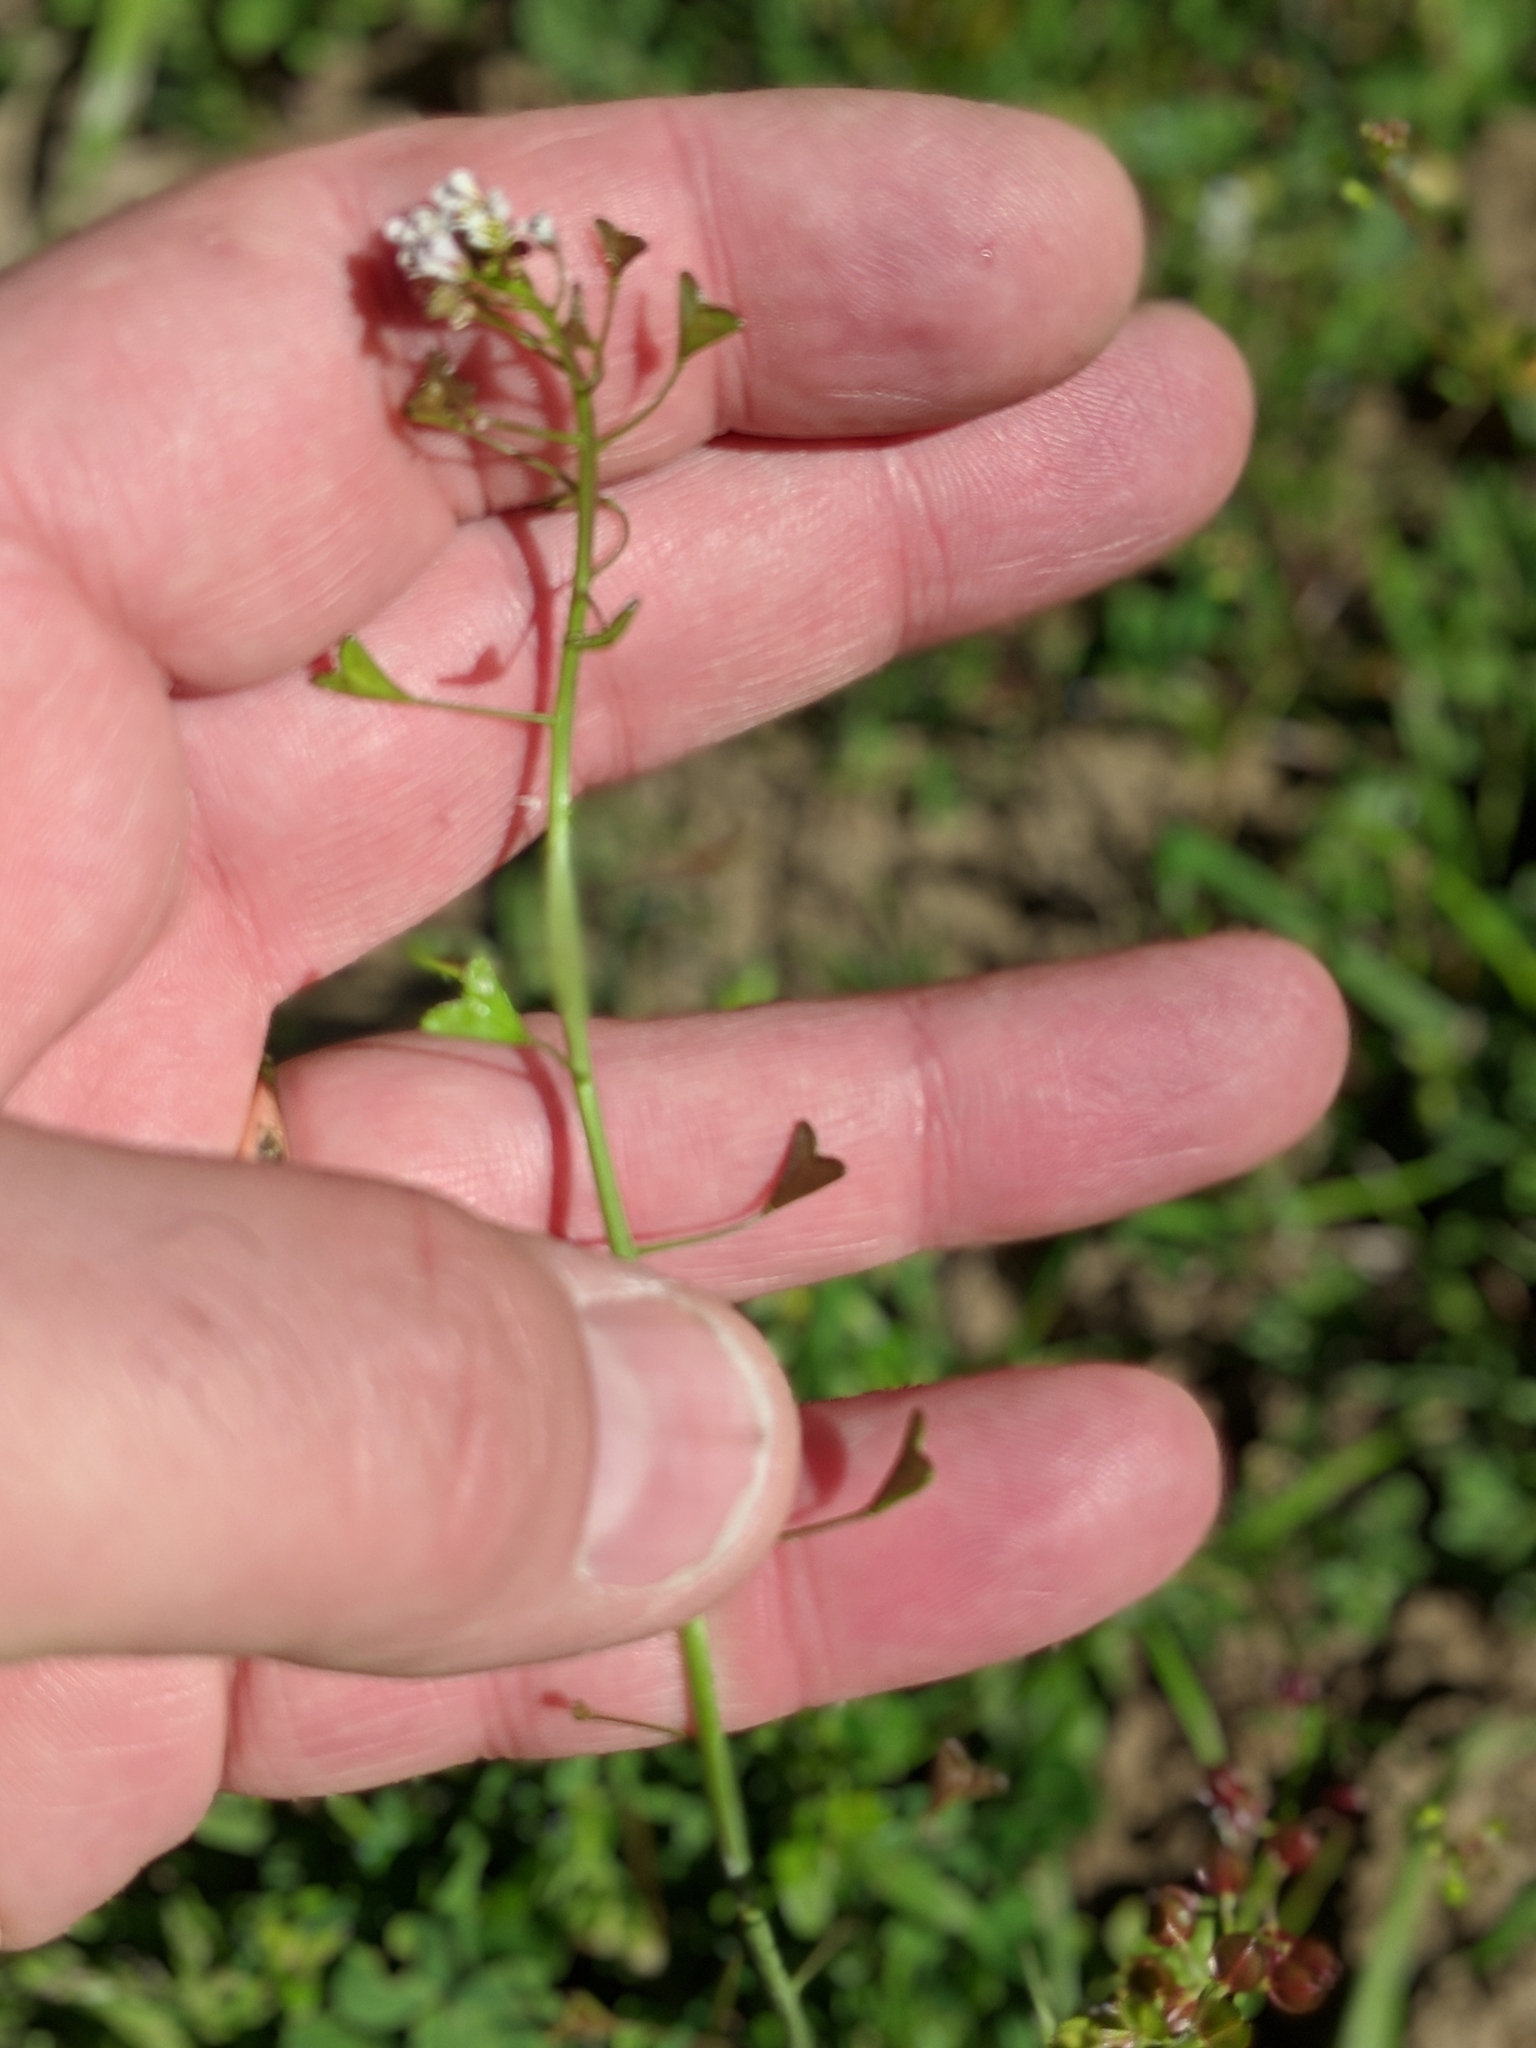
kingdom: Plantae
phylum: Tracheophyta
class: Magnoliopsida
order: Brassicales
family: Brassicaceae
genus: Capsella
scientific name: Capsella bursa-pastoris
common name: Shepherd's purse
